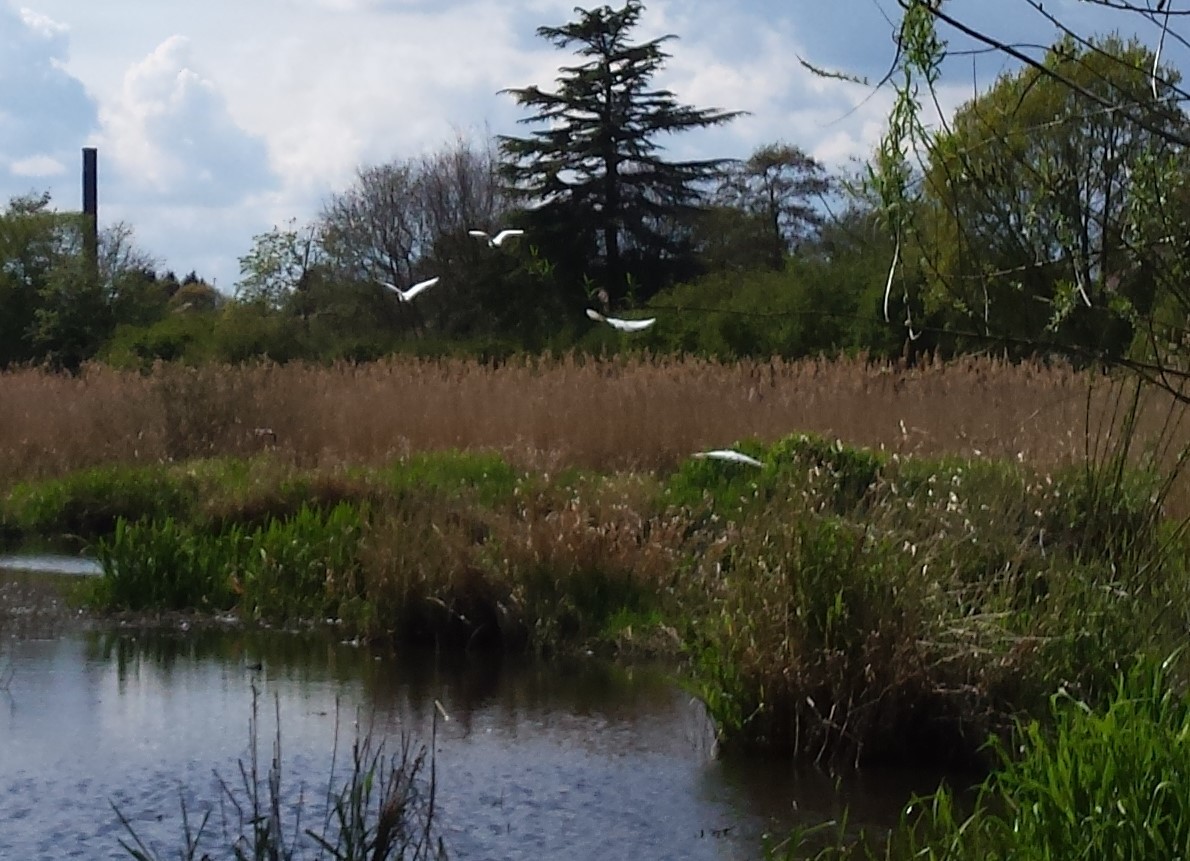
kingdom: Animalia
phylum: Chordata
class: Aves
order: Pelecaniformes
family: Ardeidae
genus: Egretta
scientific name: Egretta garzetta
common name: Little egret
